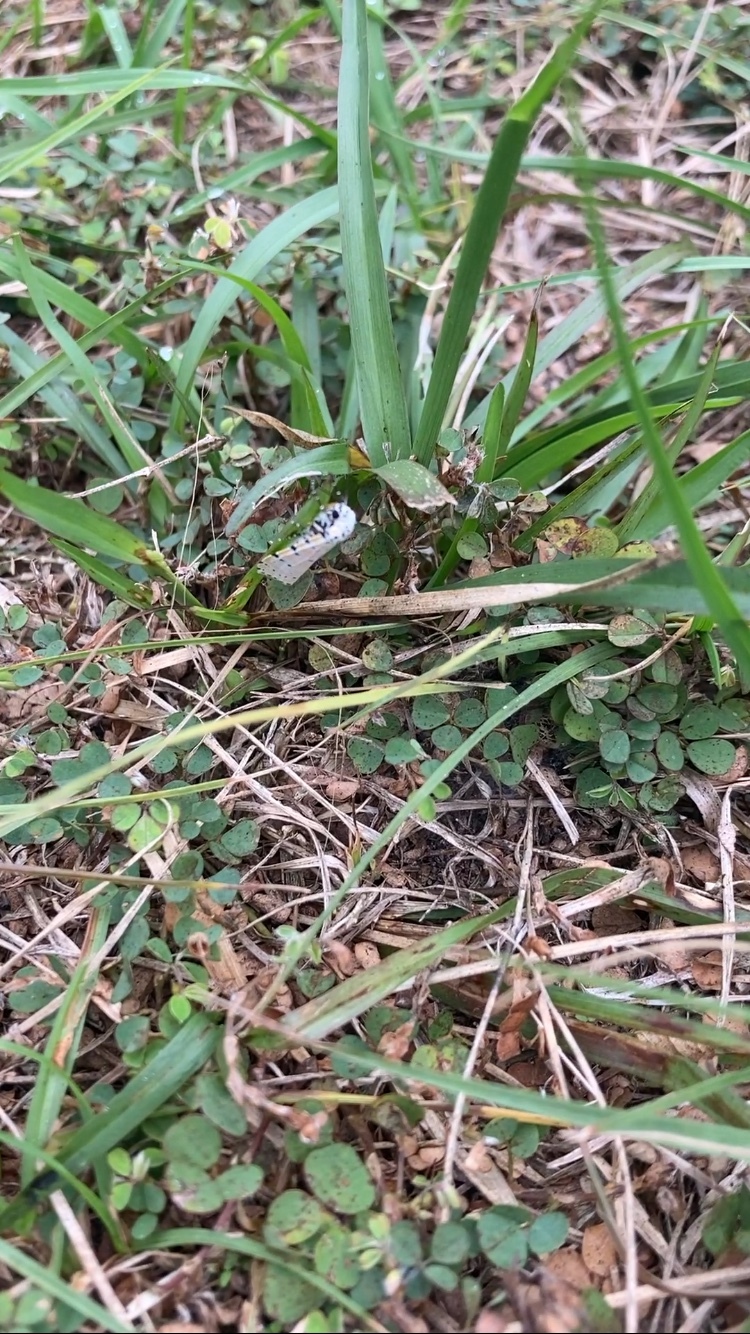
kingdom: Animalia
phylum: Arthropoda
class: Insecta
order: Lepidoptera
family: Erebidae
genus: Utetheisa
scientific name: Utetheisa ornatrix
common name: Beautiful utetheisa
